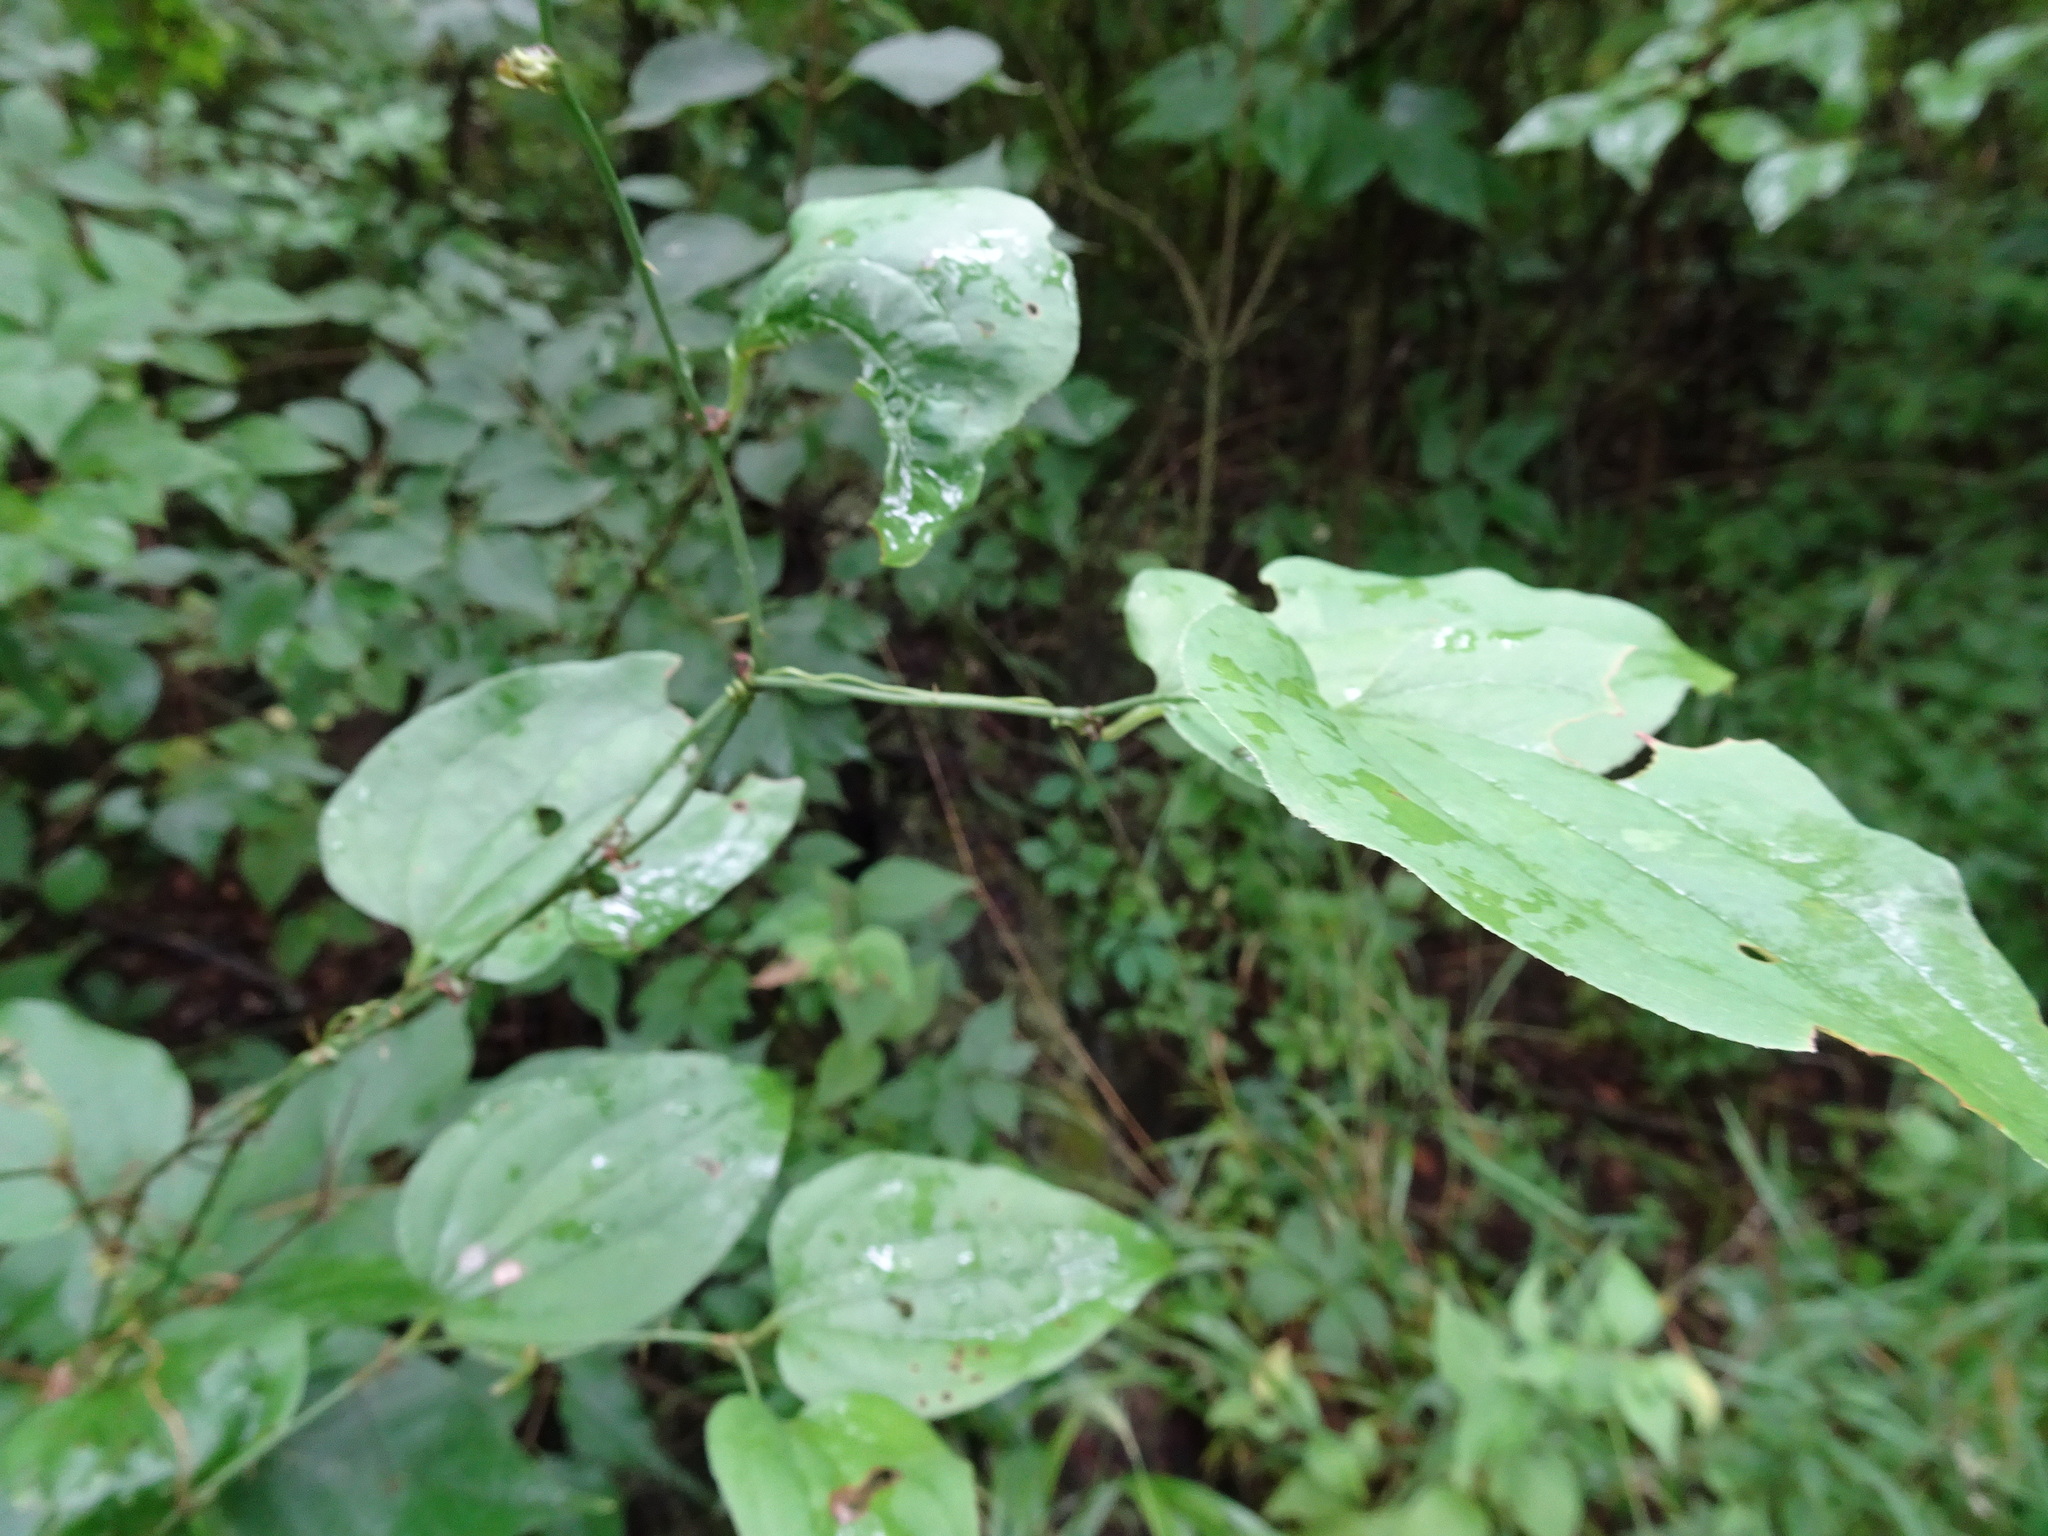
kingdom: Plantae
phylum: Tracheophyta
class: Liliopsida
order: Liliales
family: Smilacaceae
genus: Smilax
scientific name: Smilax tamnoides
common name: Hellfetter
